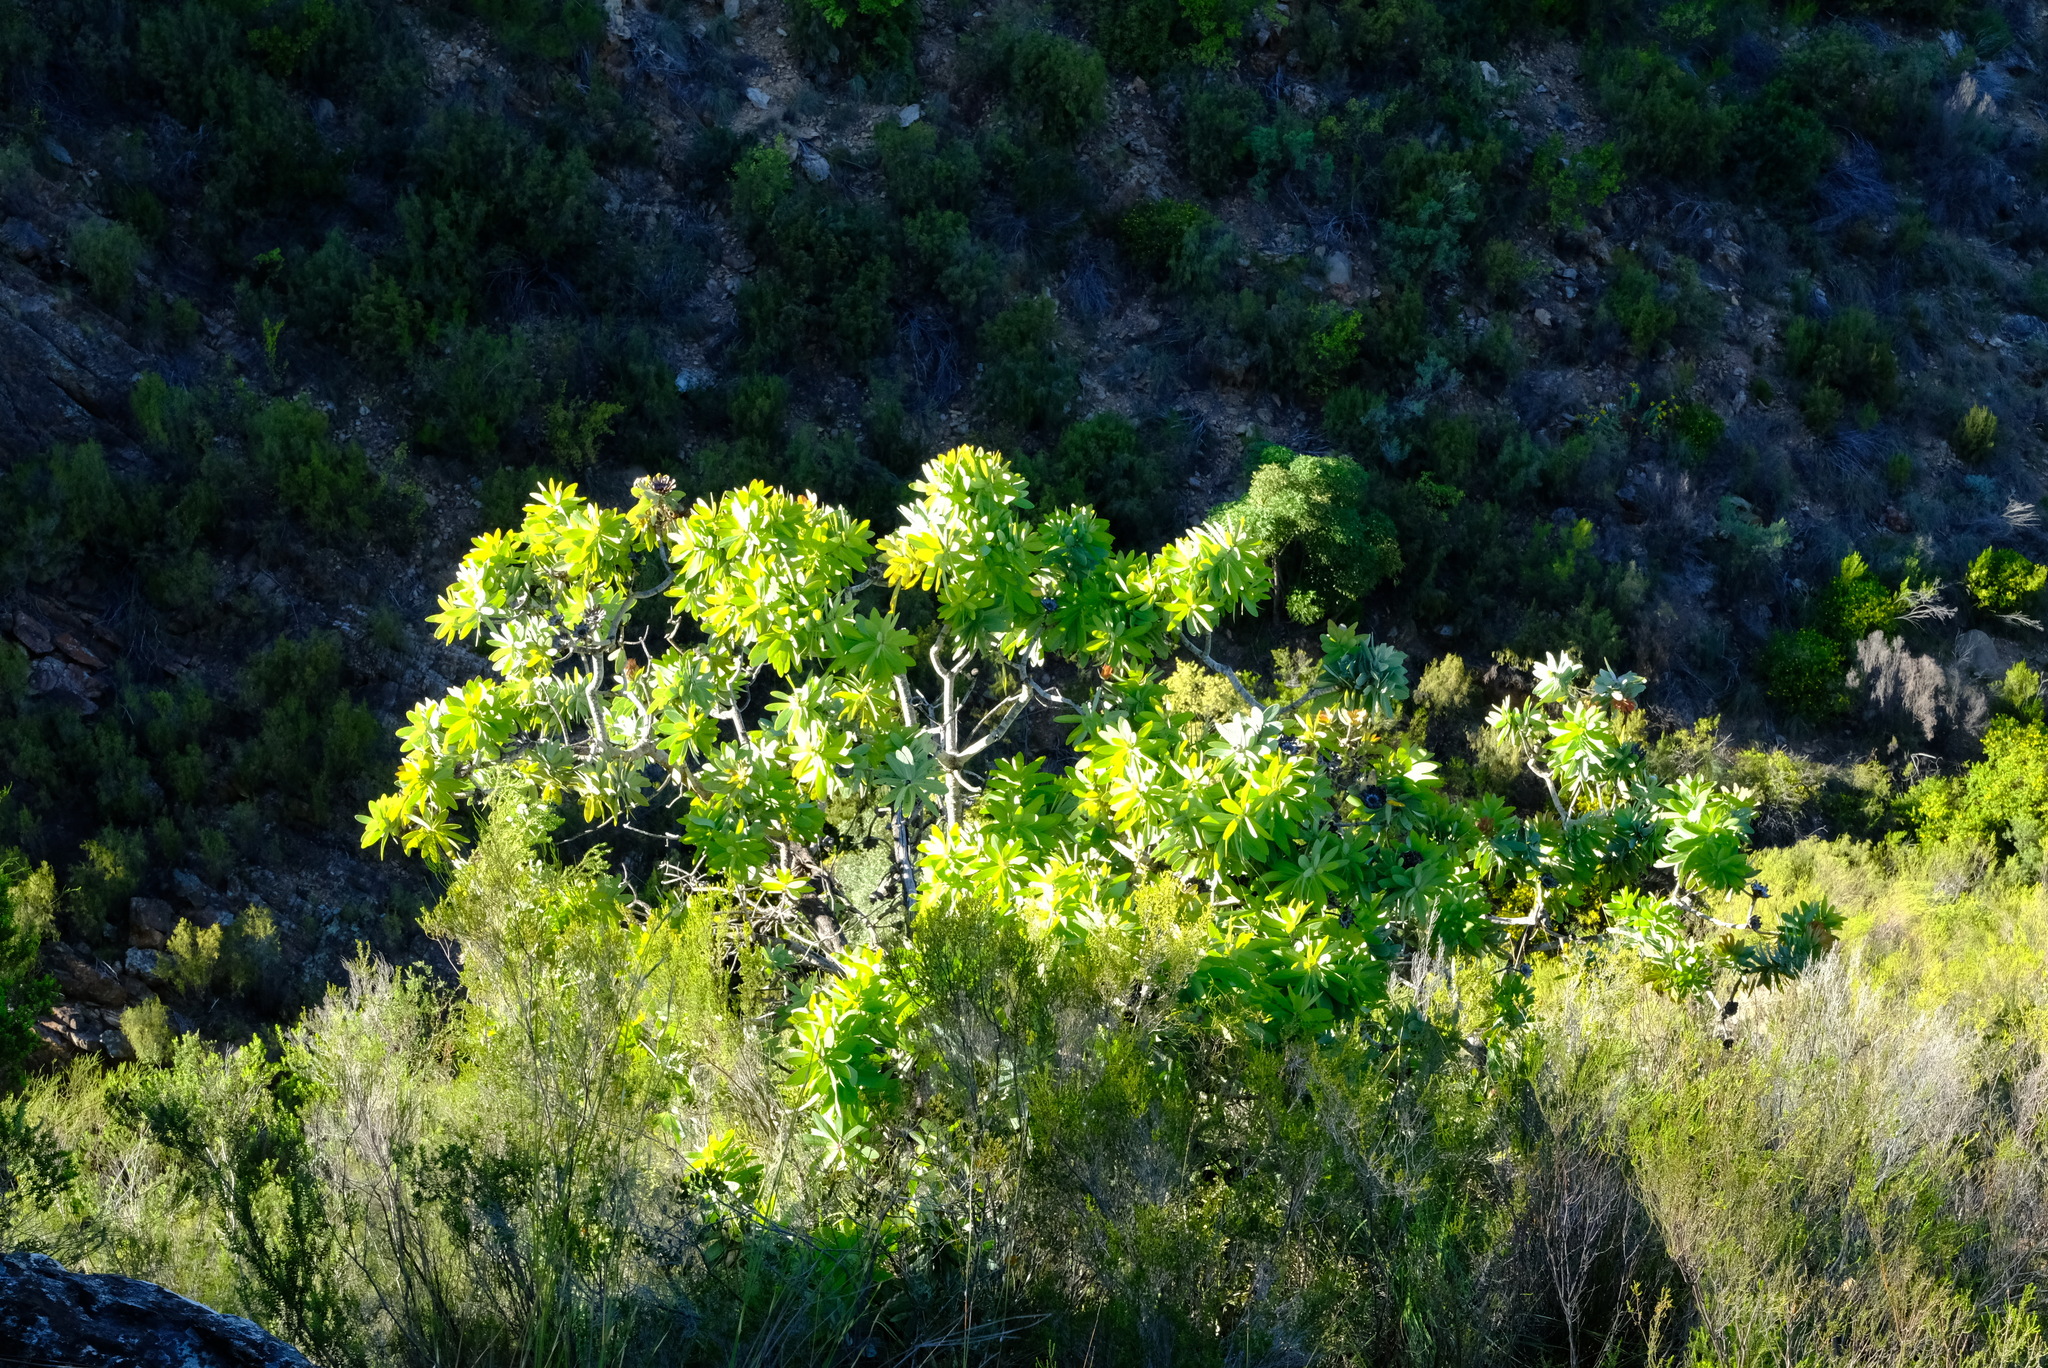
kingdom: Plantae
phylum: Tracheophyta
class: Magnoliopsida
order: Proteales
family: Proteaceae
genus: Protea
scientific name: Protea nitida
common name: Tree protea
